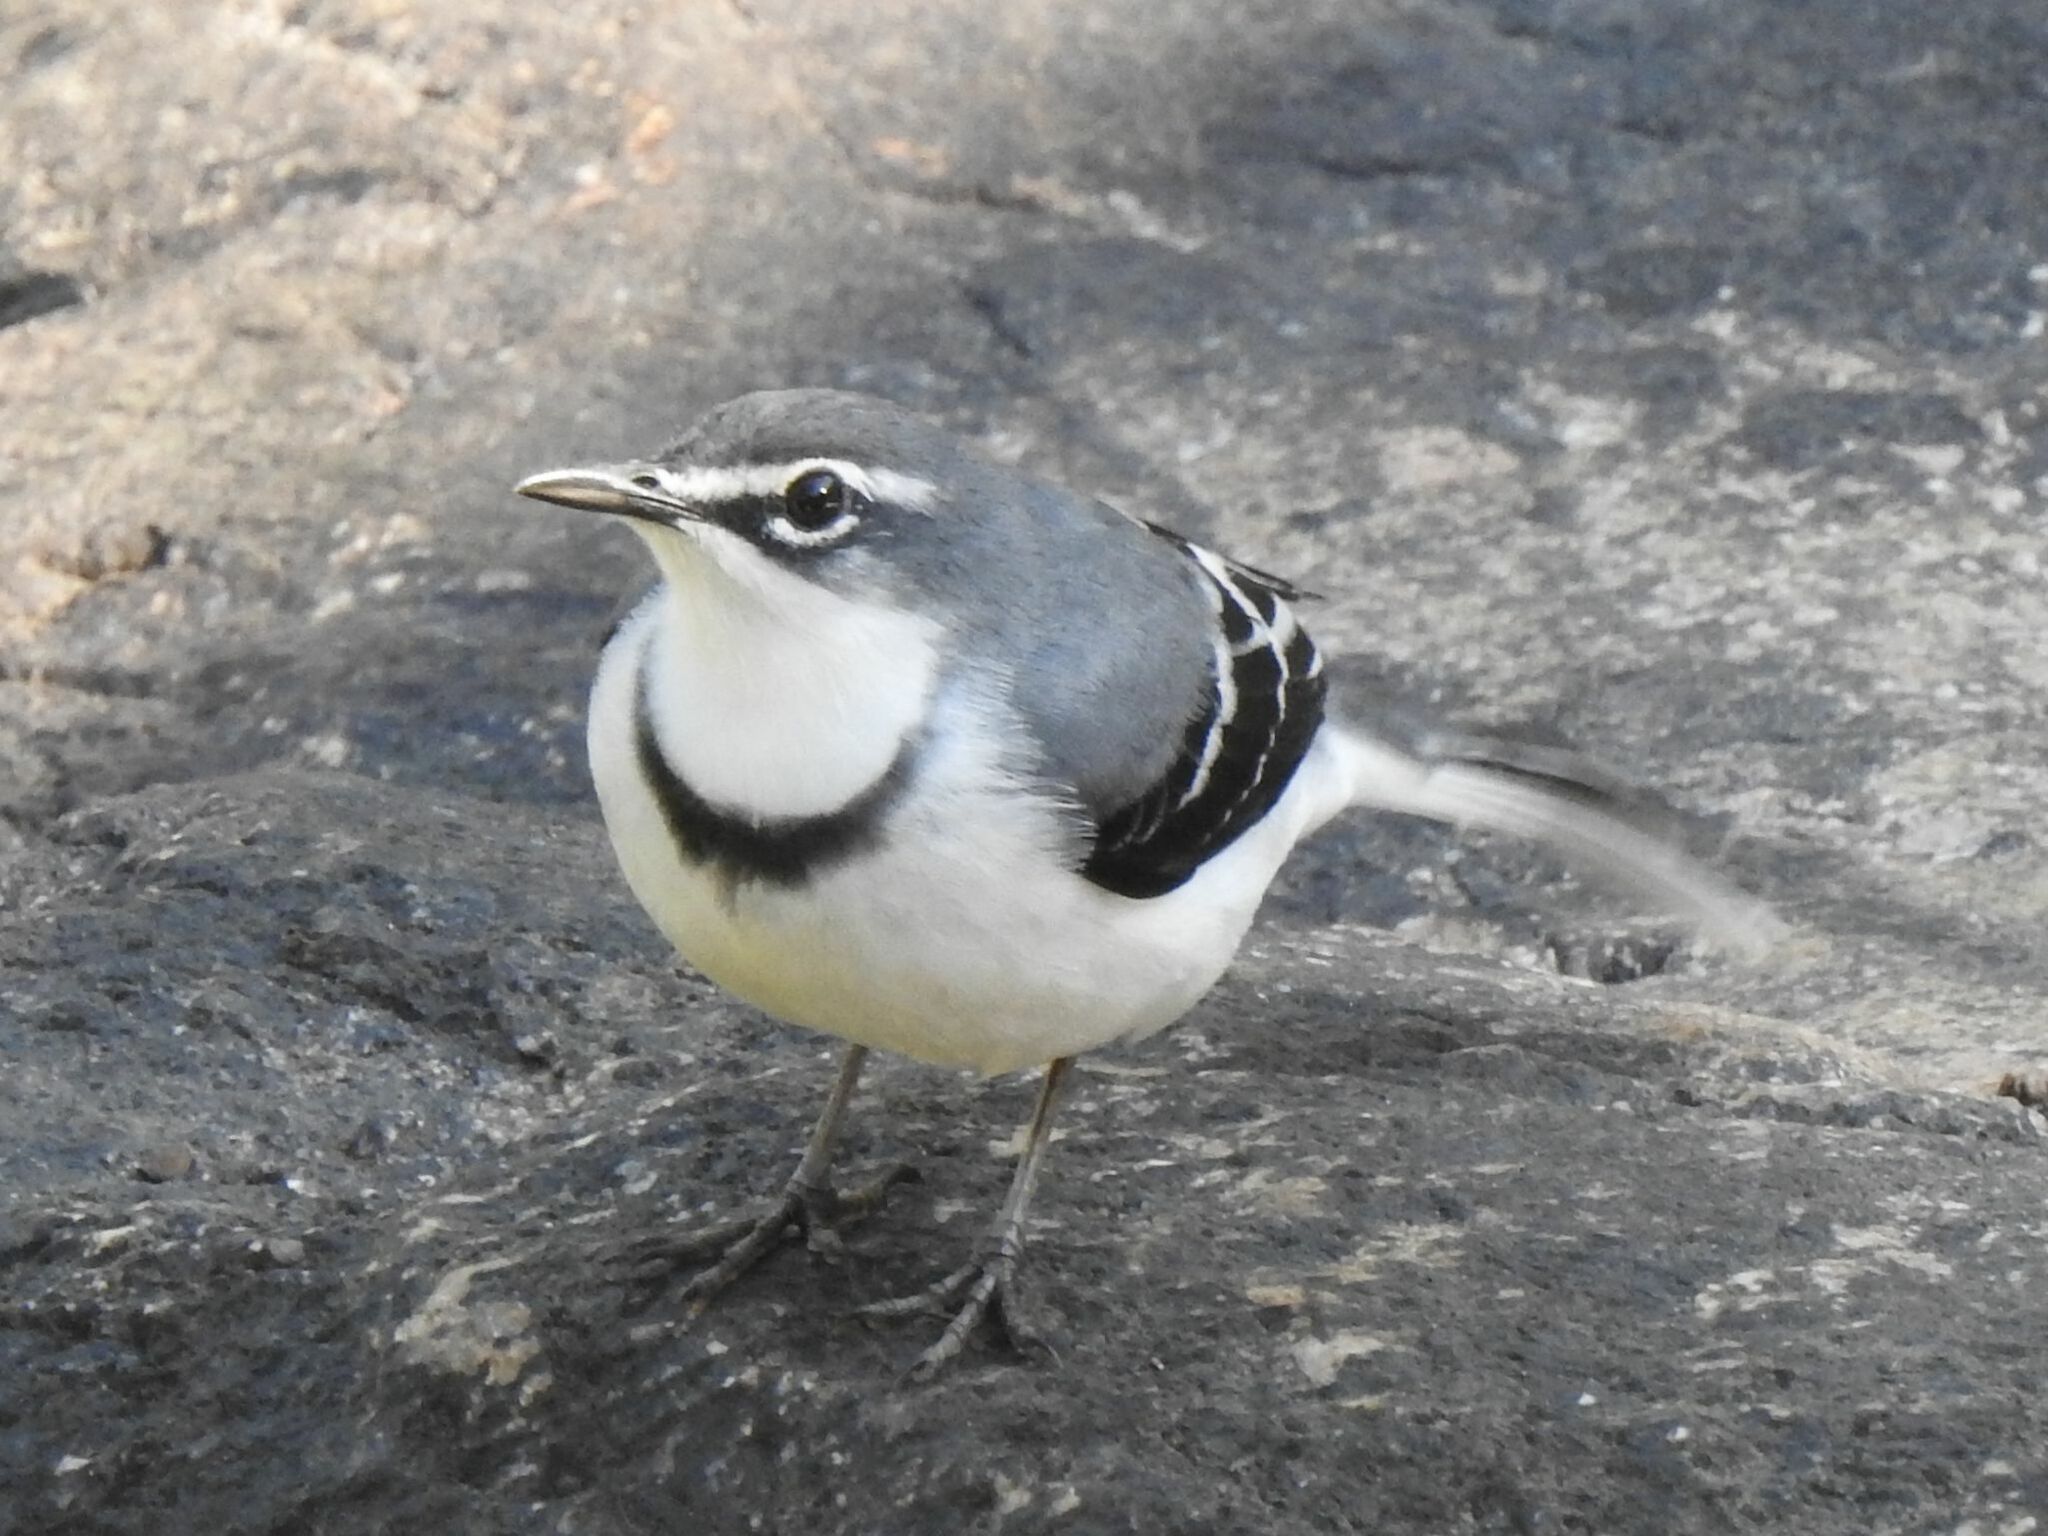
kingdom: Animalia
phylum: Chordata
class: Aves
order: Passeriformes
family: Motacillidae
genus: Motacilla
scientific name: Motacilla clara
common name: Mountain wagtail
